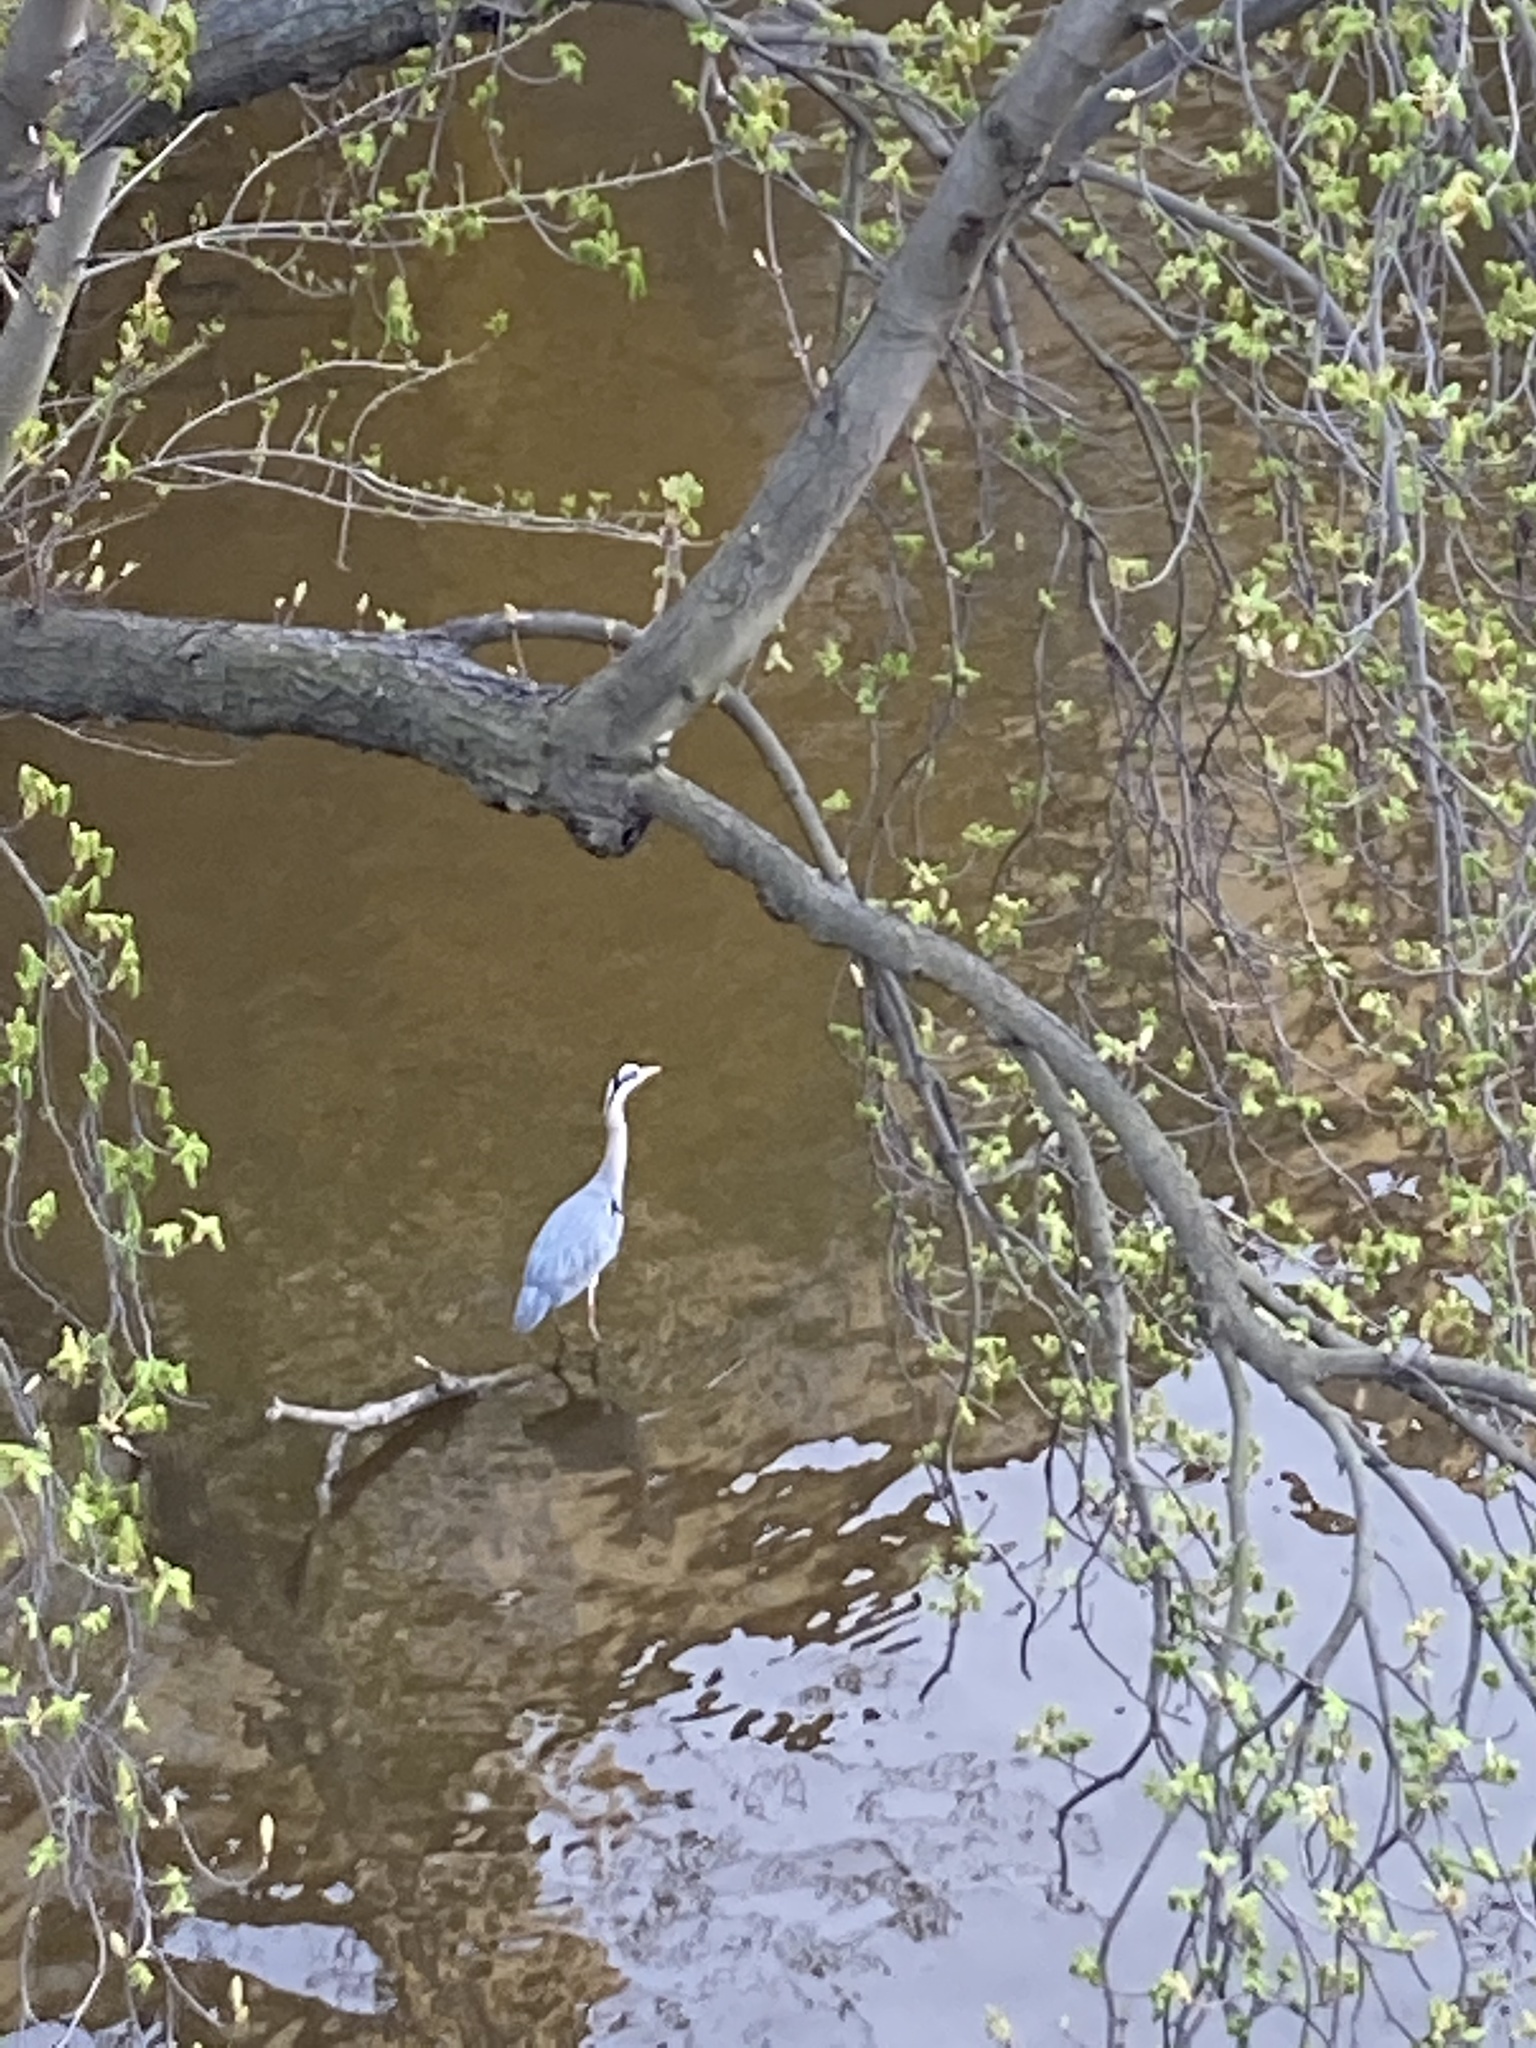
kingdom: Animalia
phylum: Chordata
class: Aves
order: Pelecaniformes
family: Ardeidae
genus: Ardea
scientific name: Ardea cinerea
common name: Grey heron
